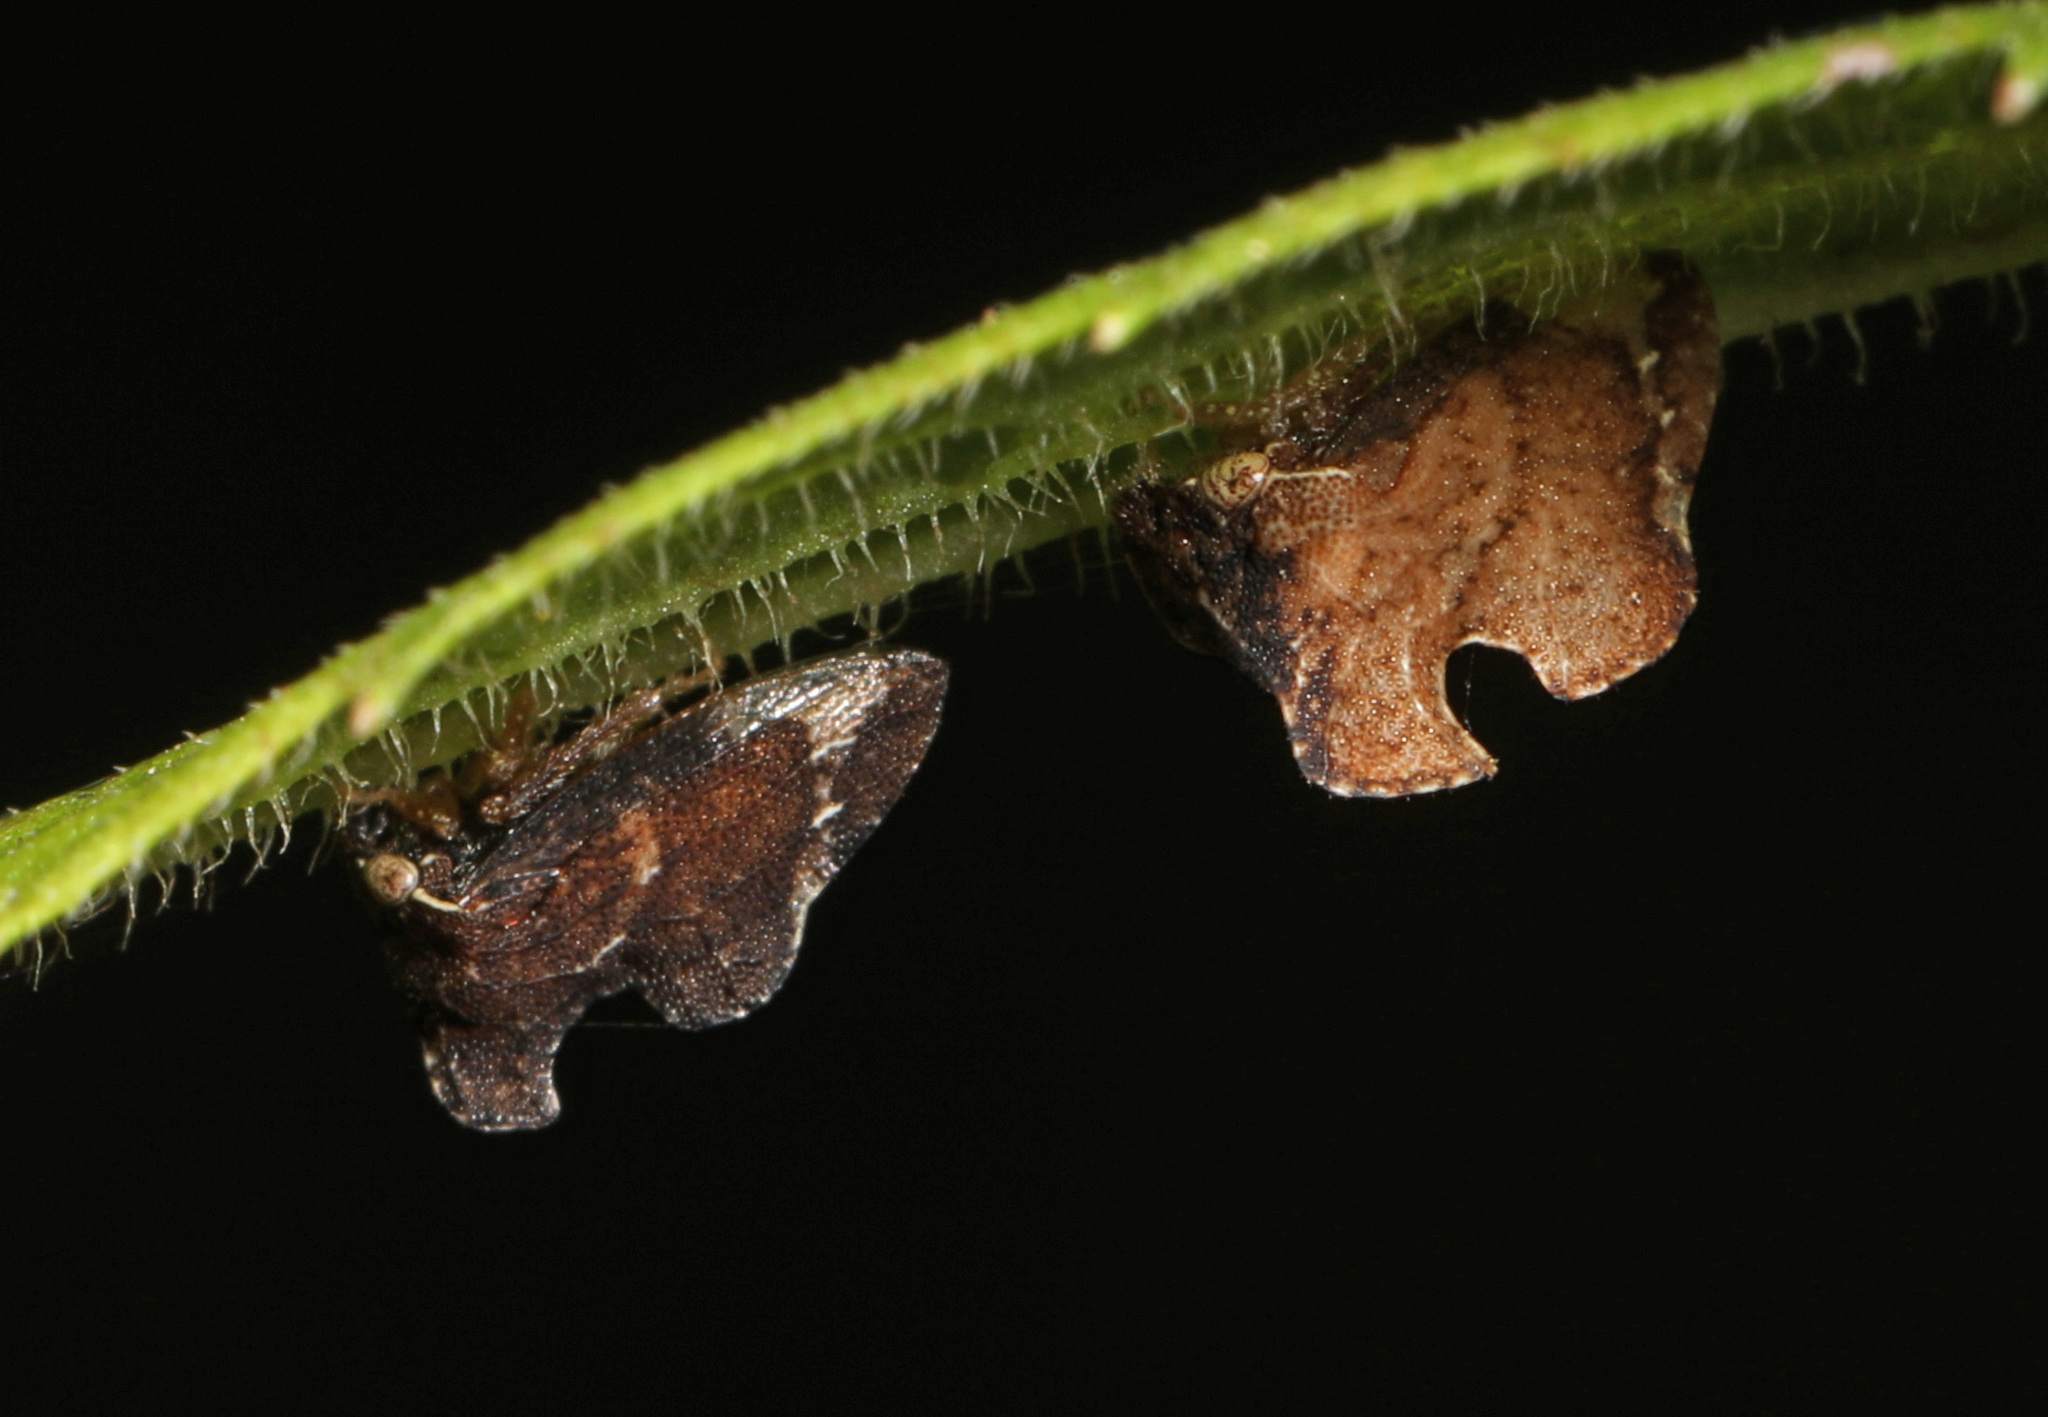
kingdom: Animalia
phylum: Arthropoda
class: Insecta
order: Hemiptera
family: Membracidae
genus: Entylia
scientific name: Entylia carinata
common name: Keeled treehopper
